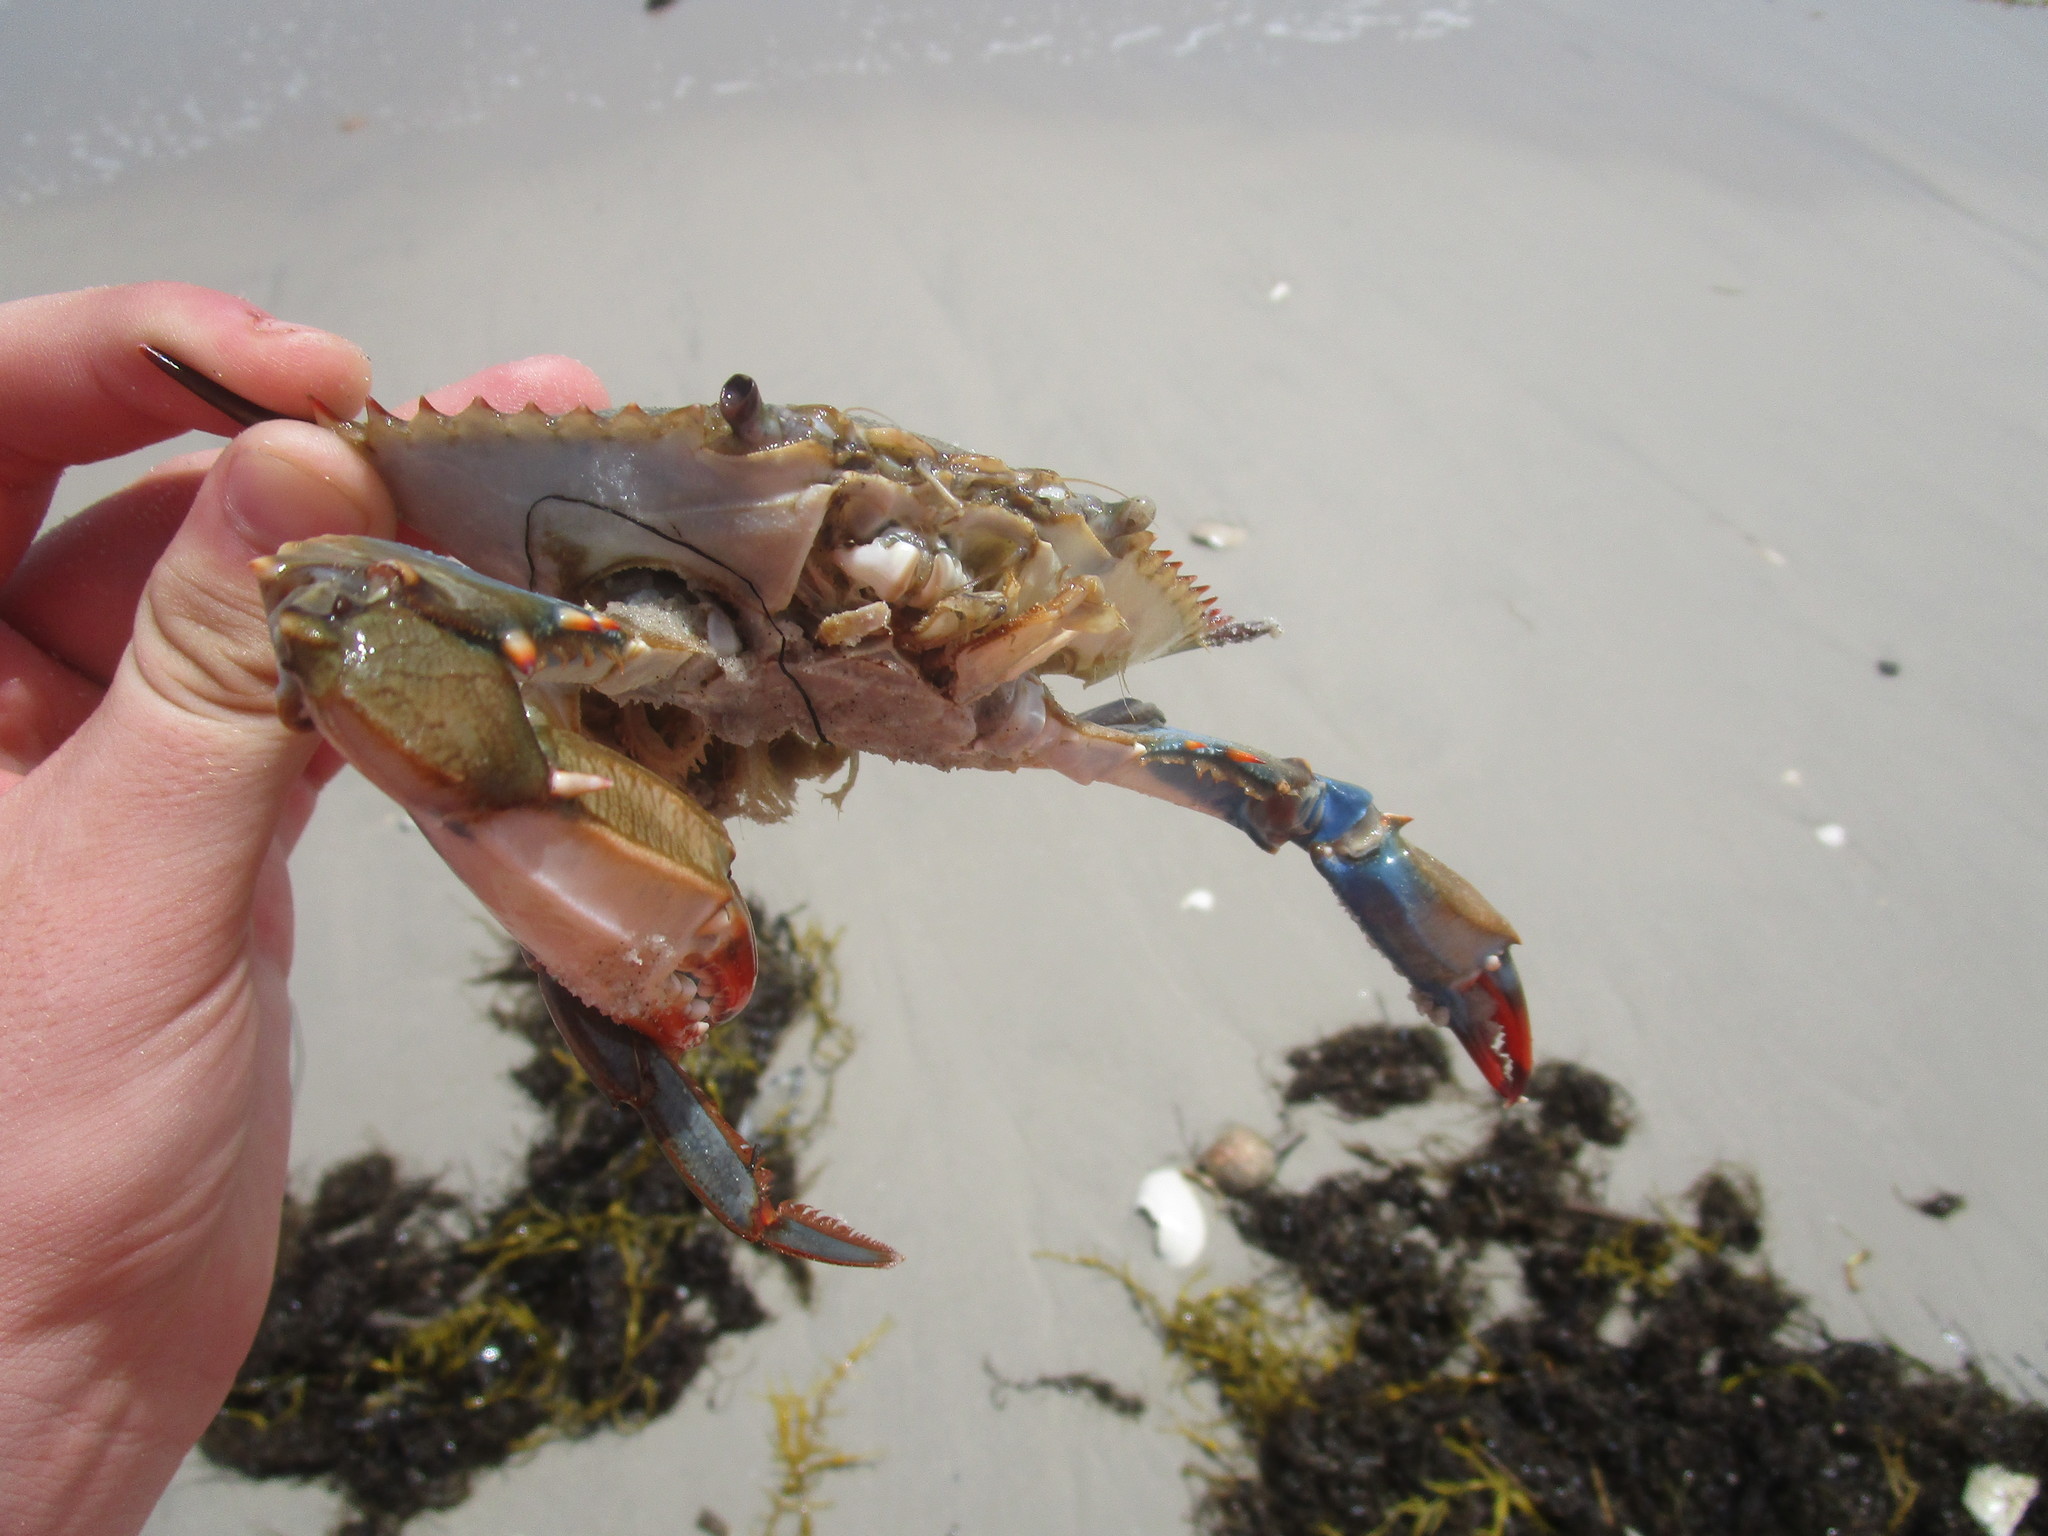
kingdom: Animalia
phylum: Arthropoda
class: Malacostraca
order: Decapoda
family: Portunidae
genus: Callinectes
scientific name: Callinectes sapidus
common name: Blue crab
